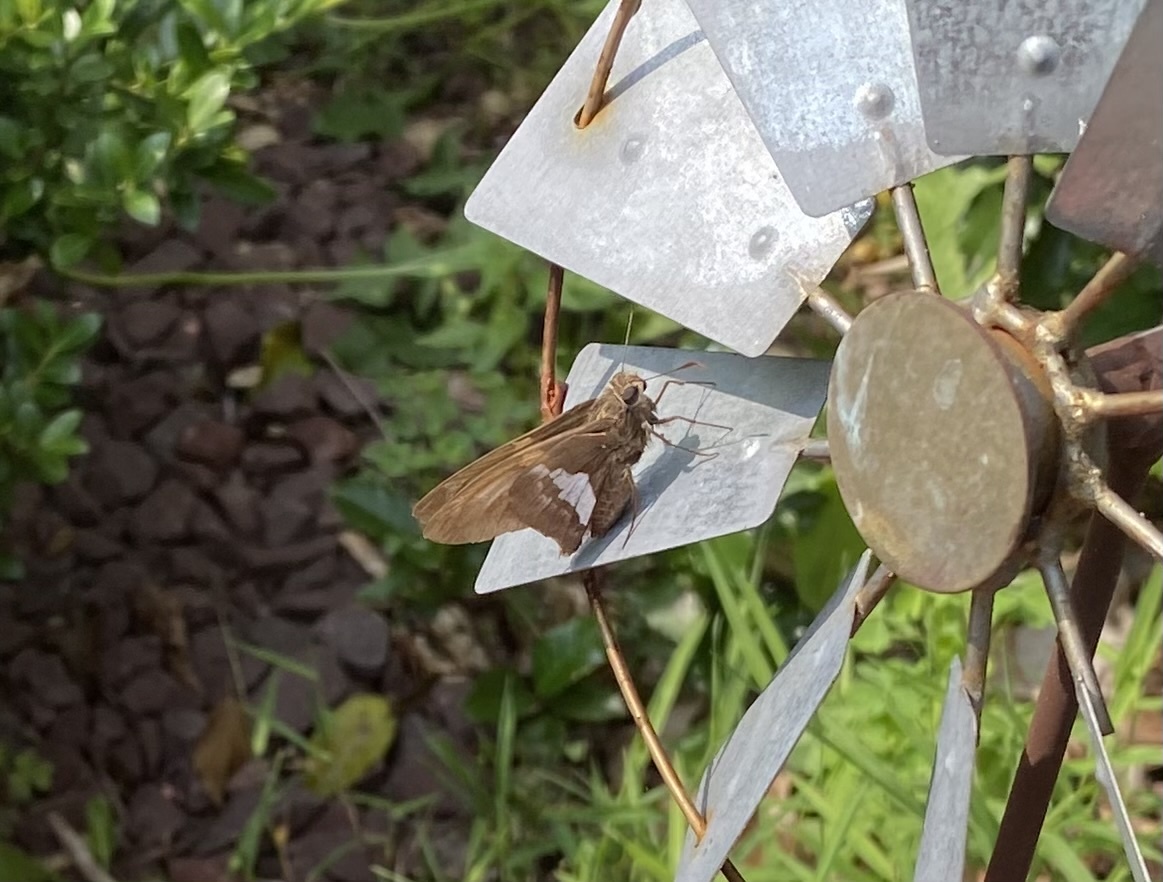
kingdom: Animalia
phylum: Arthropoda
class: Insecta
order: Lepidoptera
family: Hesperiidae
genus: Epargyreus
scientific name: Epargyreus clarus
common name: Silver-spotted skipper
